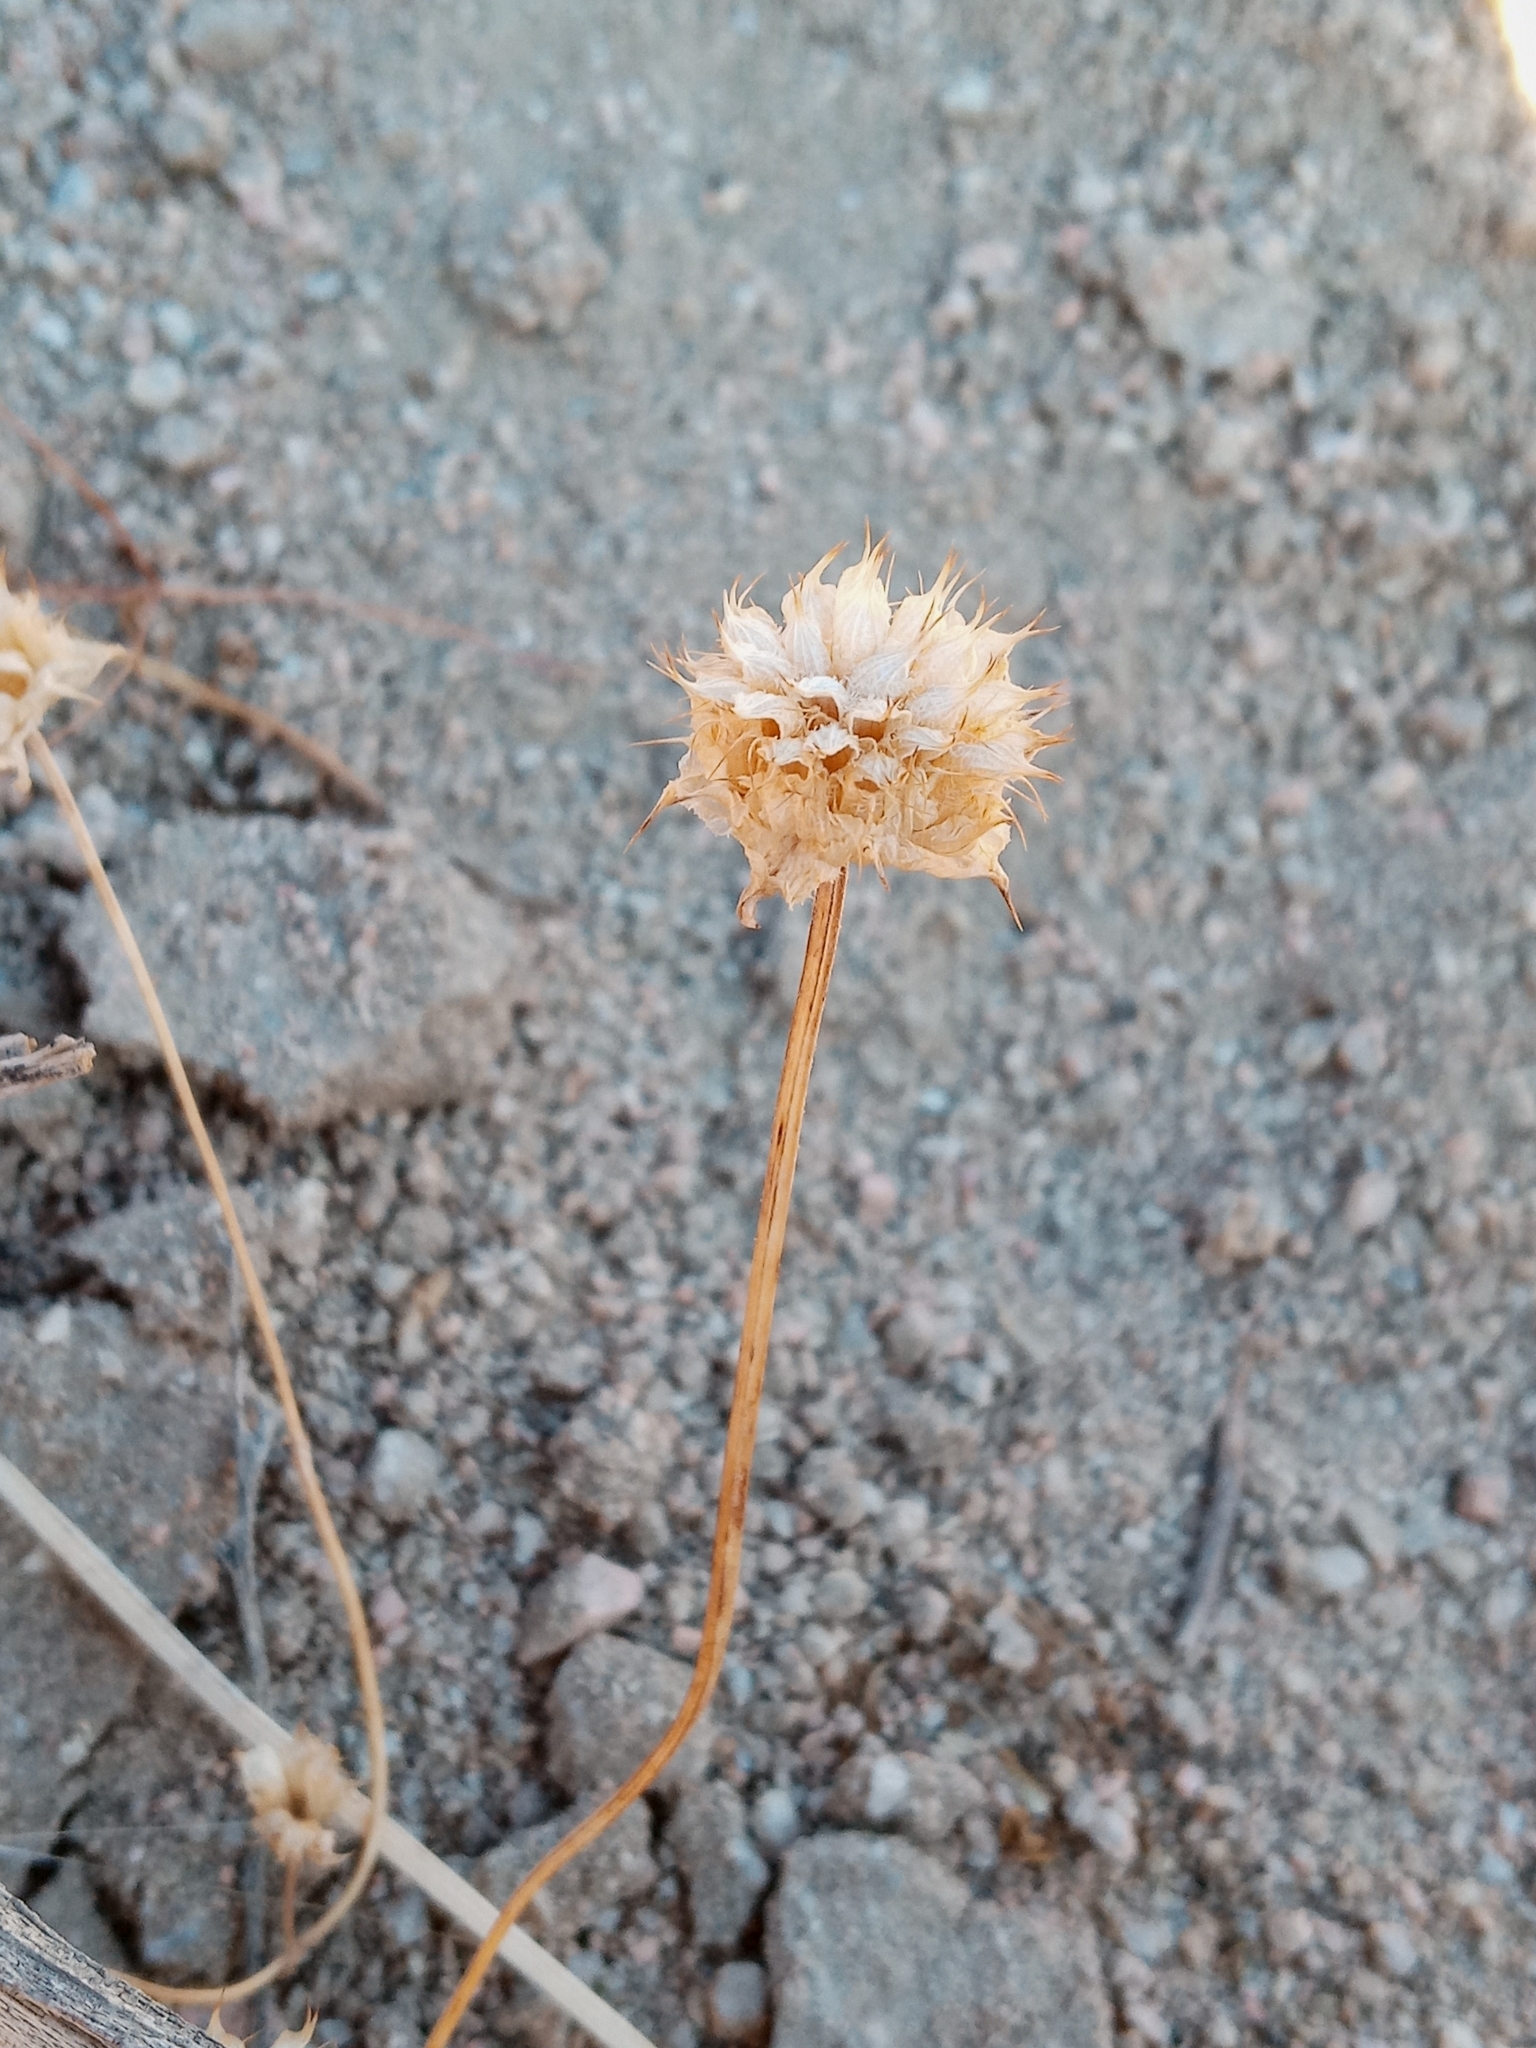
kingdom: Plantae
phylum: Tracheophyta
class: Magnoliopsida
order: Lamiales
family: Lamiaceae
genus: Salvia
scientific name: Salvia columbariae
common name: Chia
